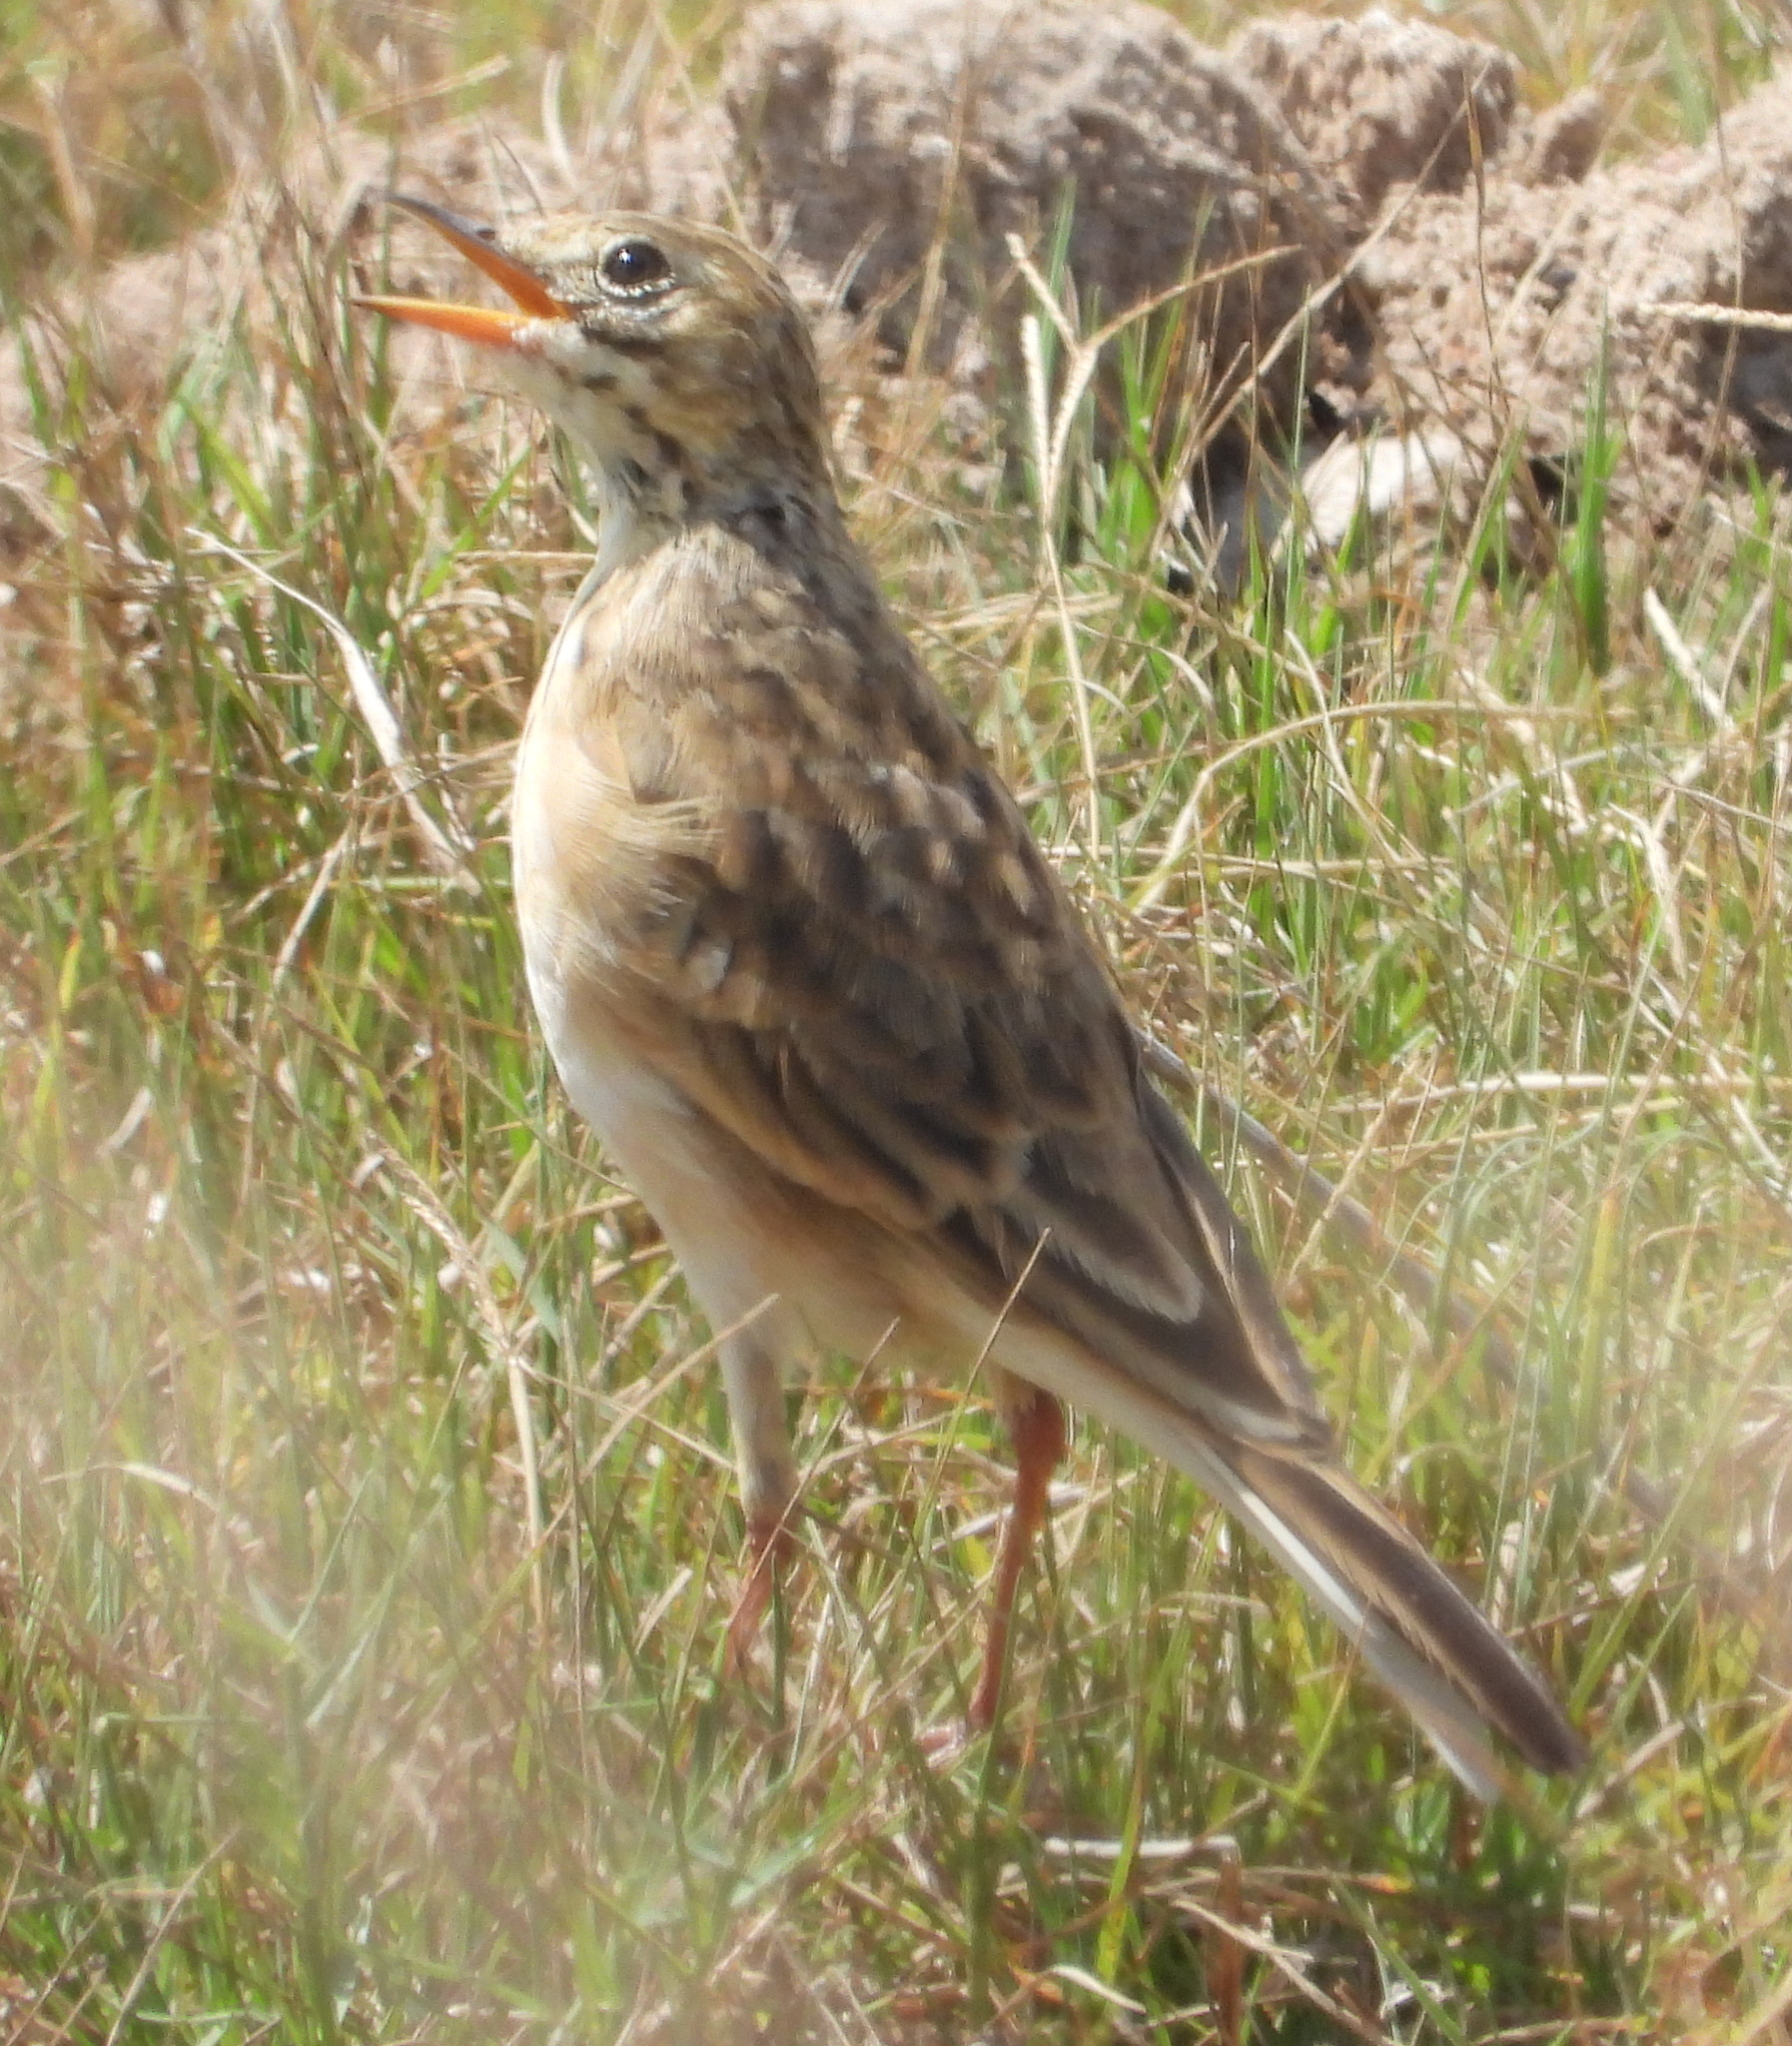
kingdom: Animalia
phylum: Chordata
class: Aves
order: Passeriformes
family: Motacillidae
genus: Anthus
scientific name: Anthus cinnamomeus
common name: African pipit
